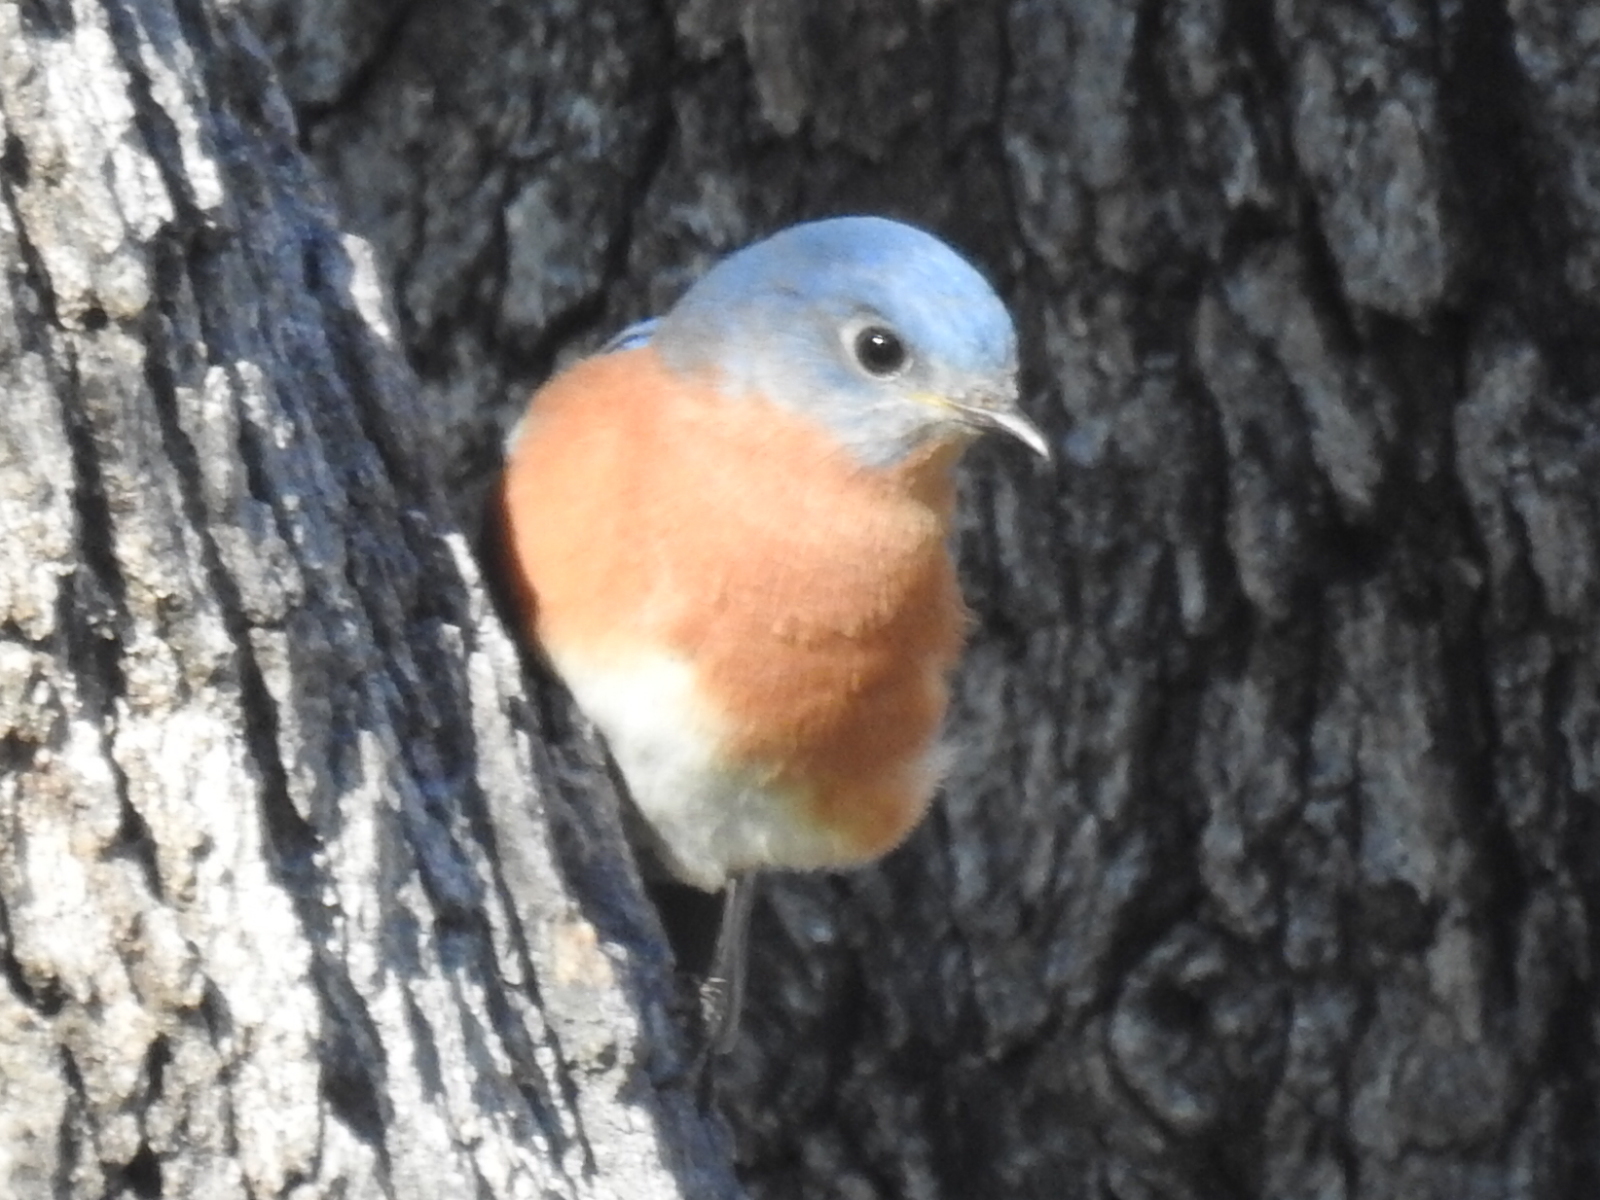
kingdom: Animalia
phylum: Chordata
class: Aves
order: Passeriformes
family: Turdidae
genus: Sialia
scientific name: Sialia sialis
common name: Eastern bluebird
